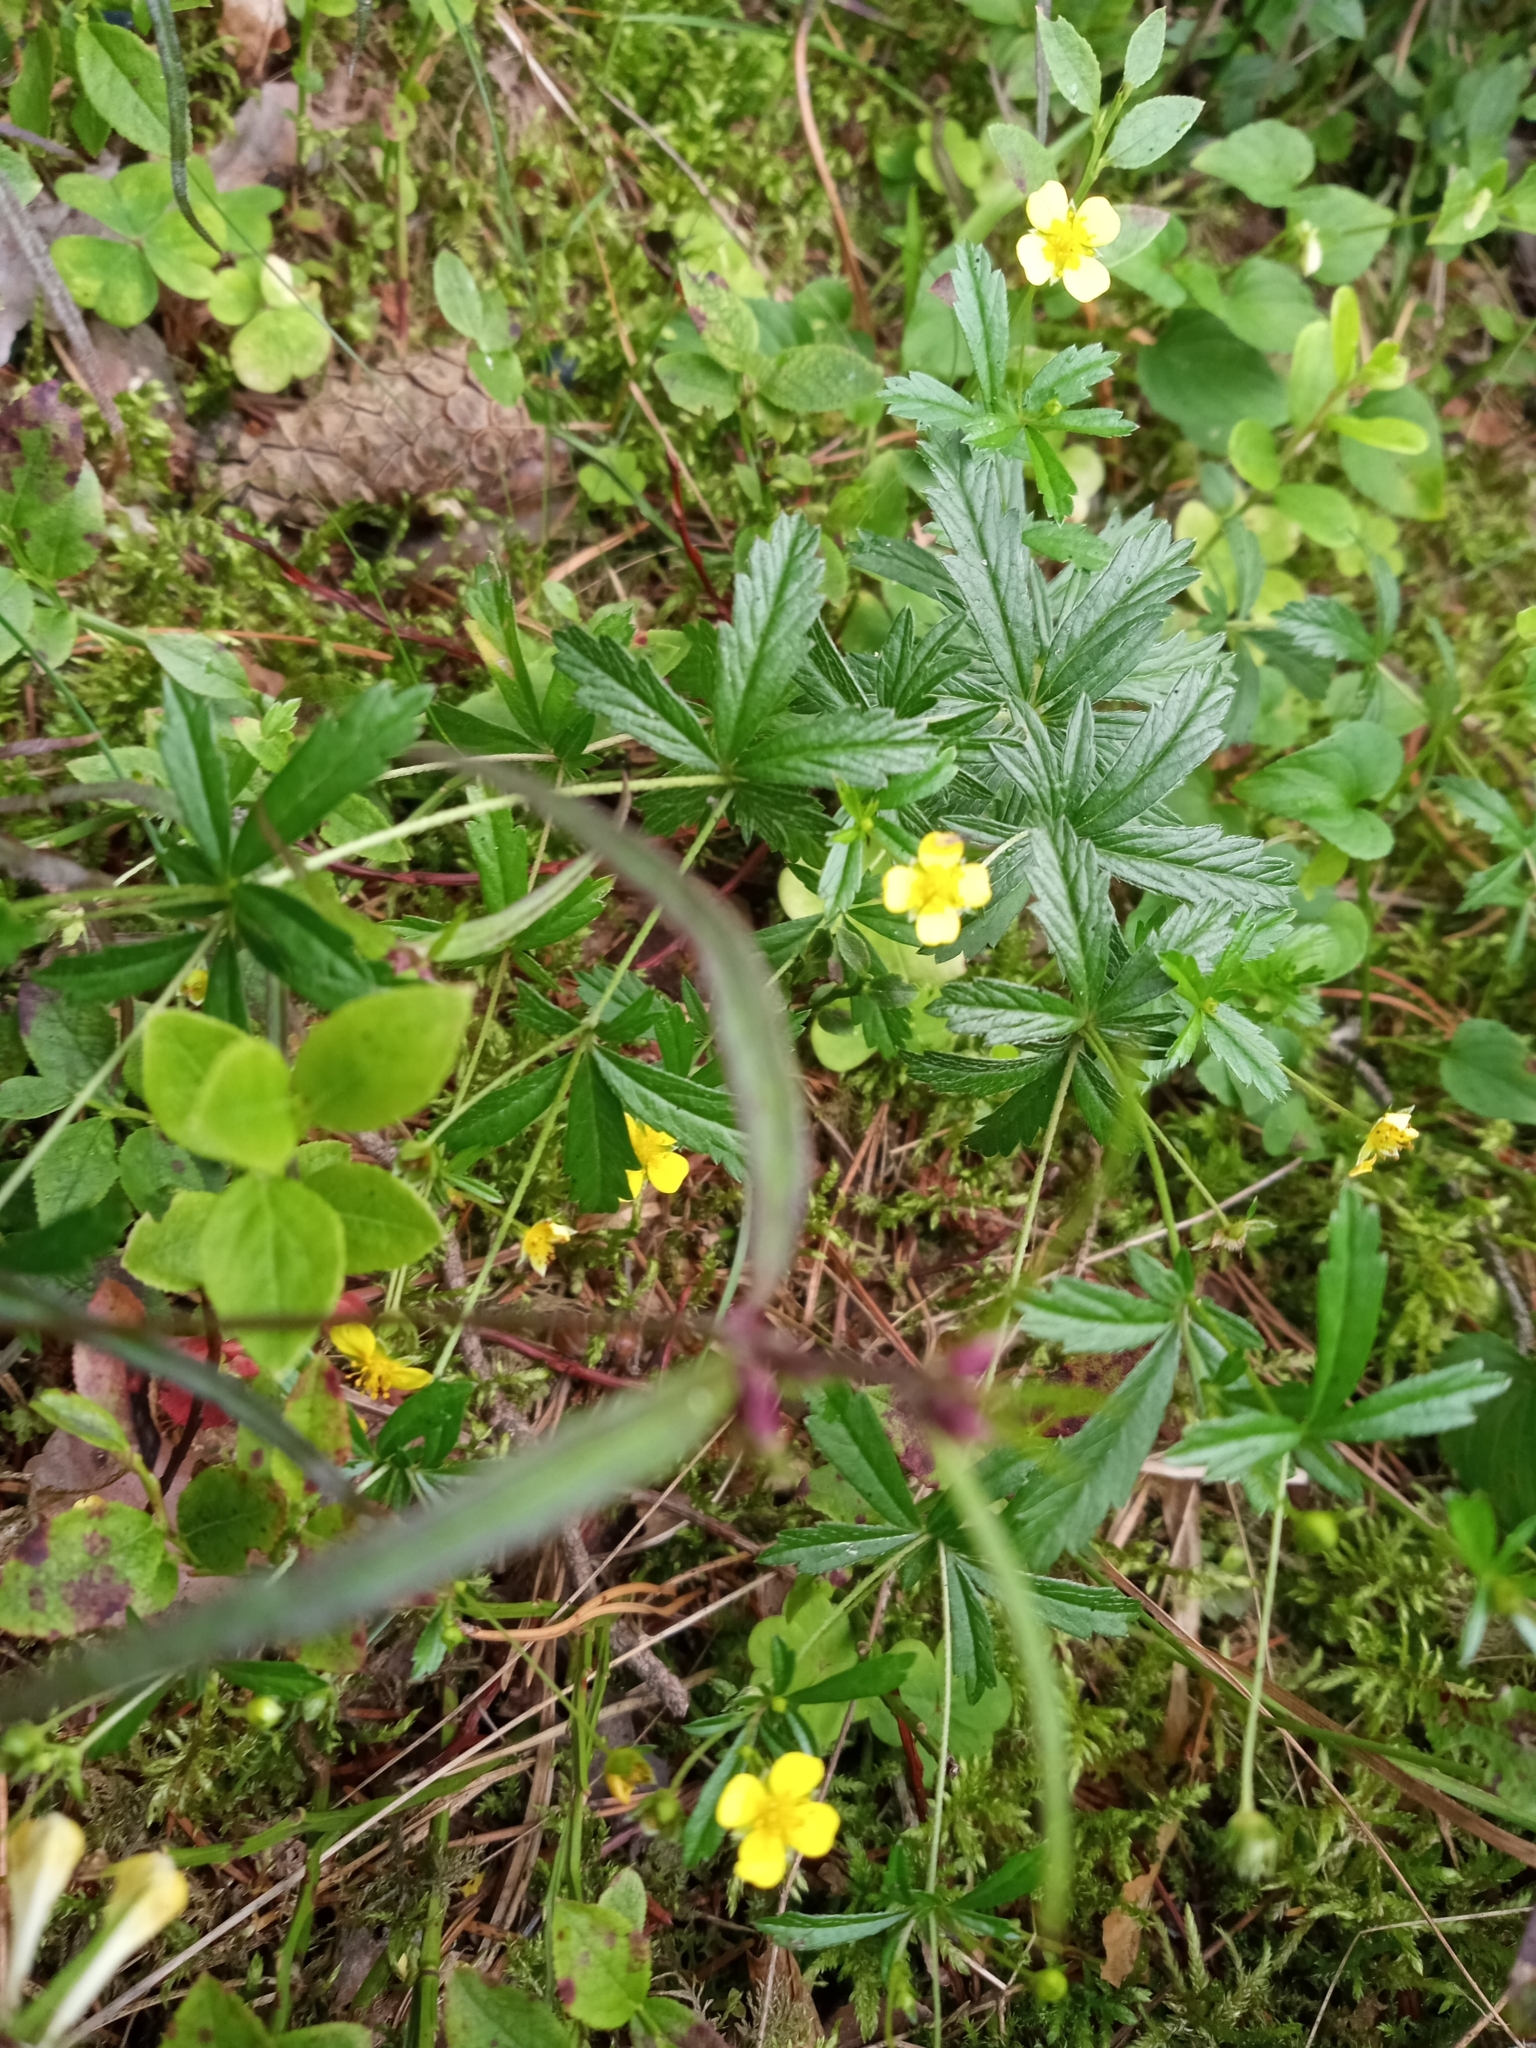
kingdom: Plantae
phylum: Tracheophyta
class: Magnoliopsida
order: Rosales
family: Rosaceae
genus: Potentilla
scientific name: Potentilla erecta
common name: Tormentil
